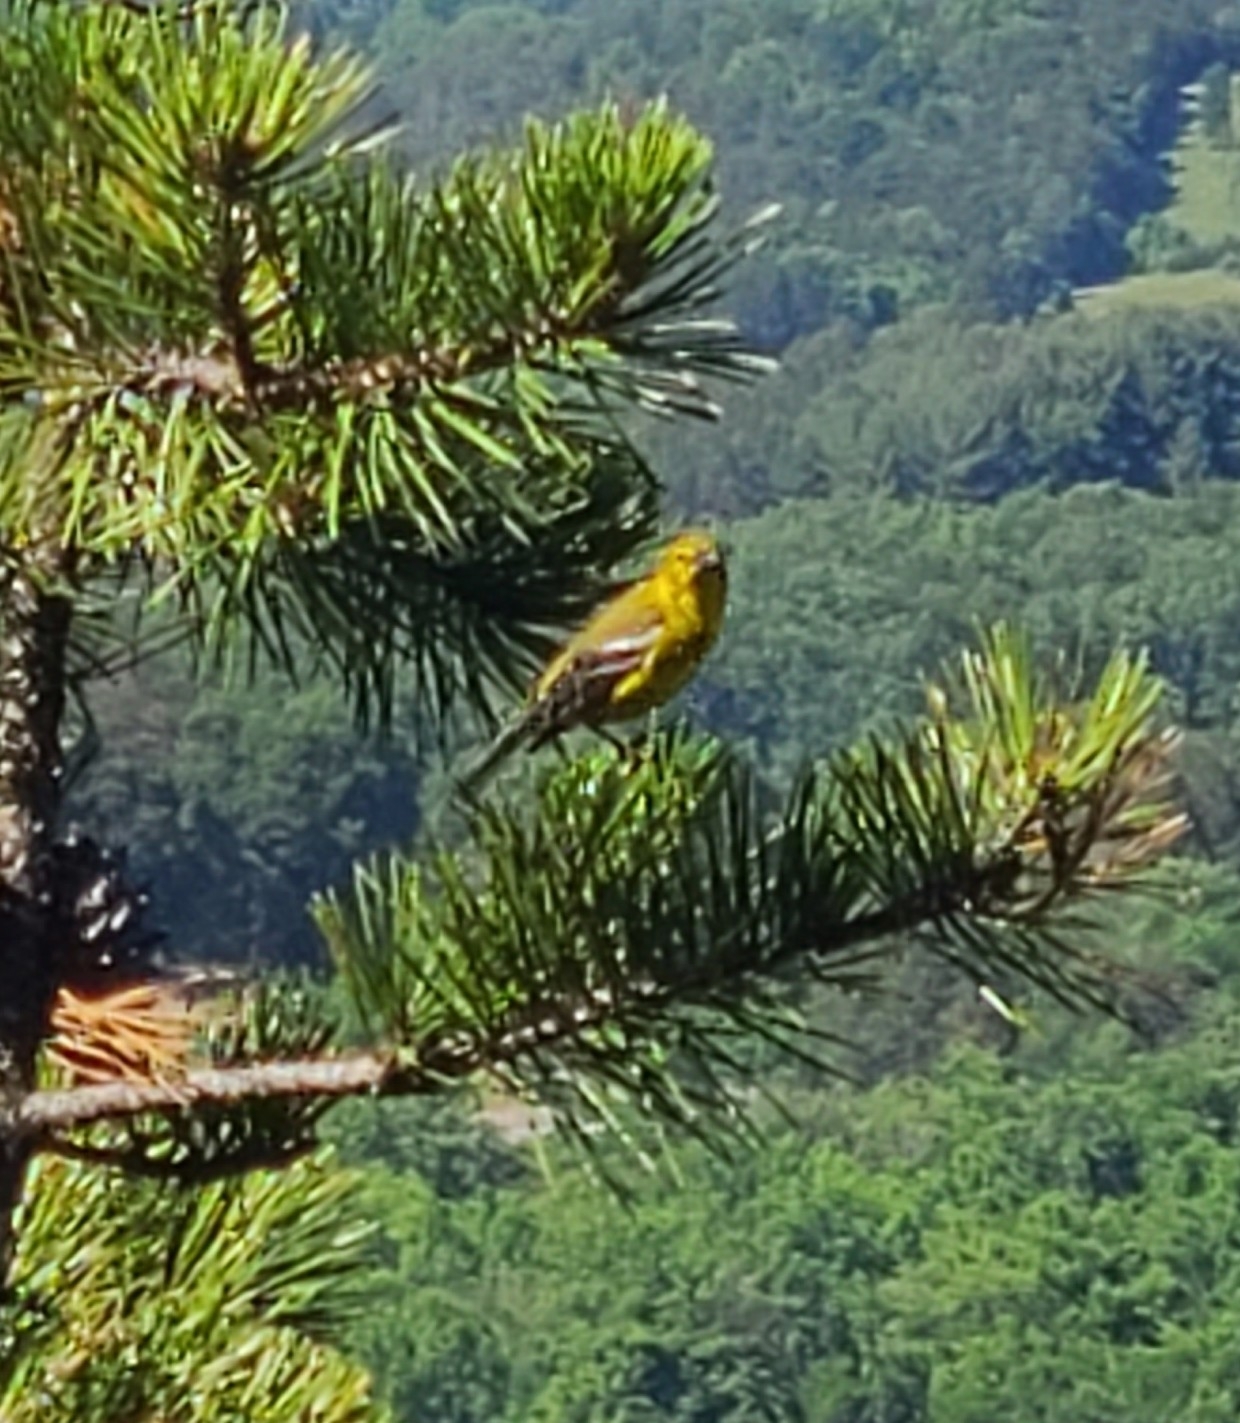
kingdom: Animalia
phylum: Chordata
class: Aves
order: Passeriformes
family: Parulidae
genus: Setophaga
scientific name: Setophaga pinus
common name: Pine warbler
